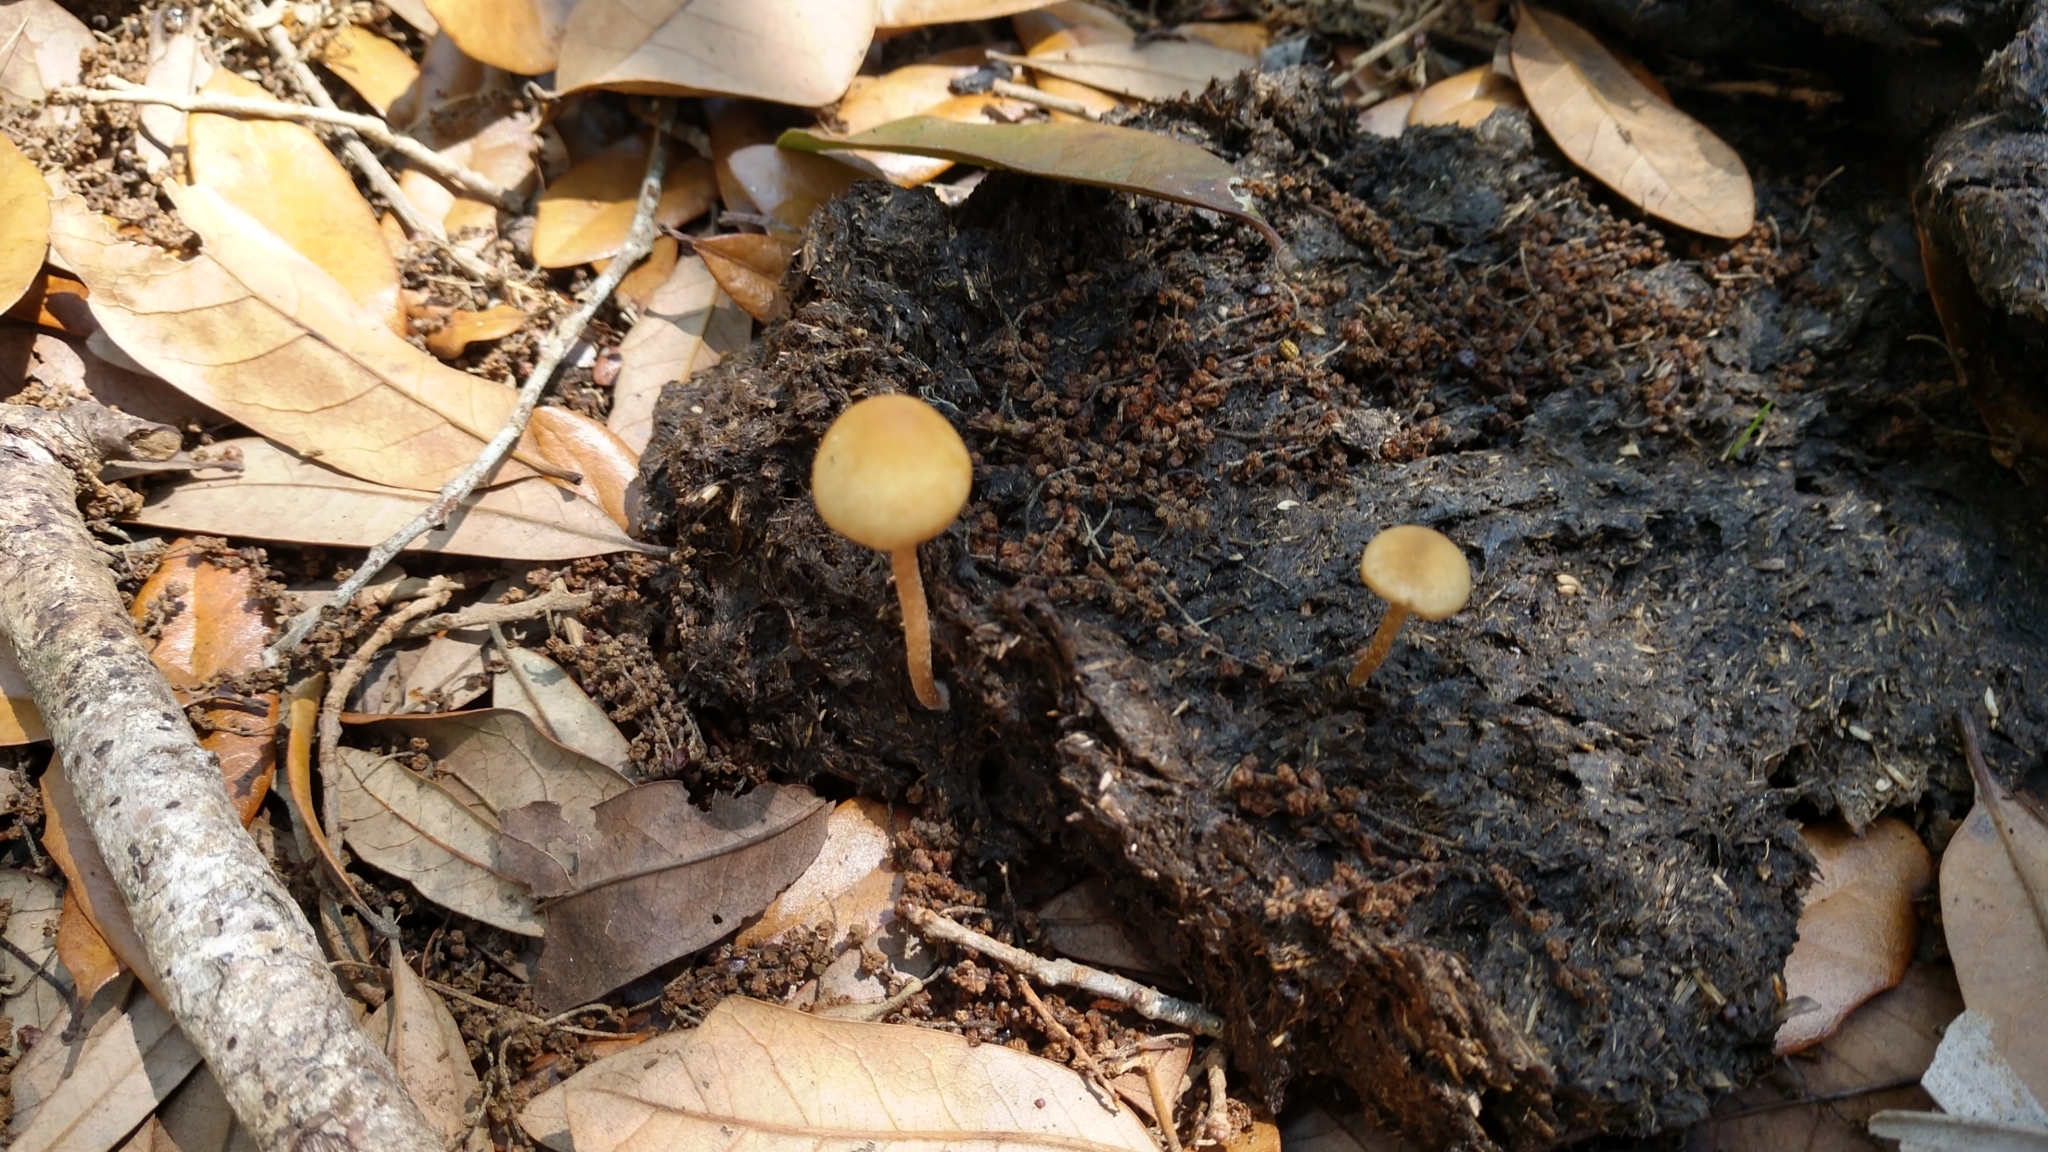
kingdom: Fungi
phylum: Basidiomycota
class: Agaricomycetes
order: Agaricales
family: Bolbitiaceae
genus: Panaeolus
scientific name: Panaeolus cyanescens
